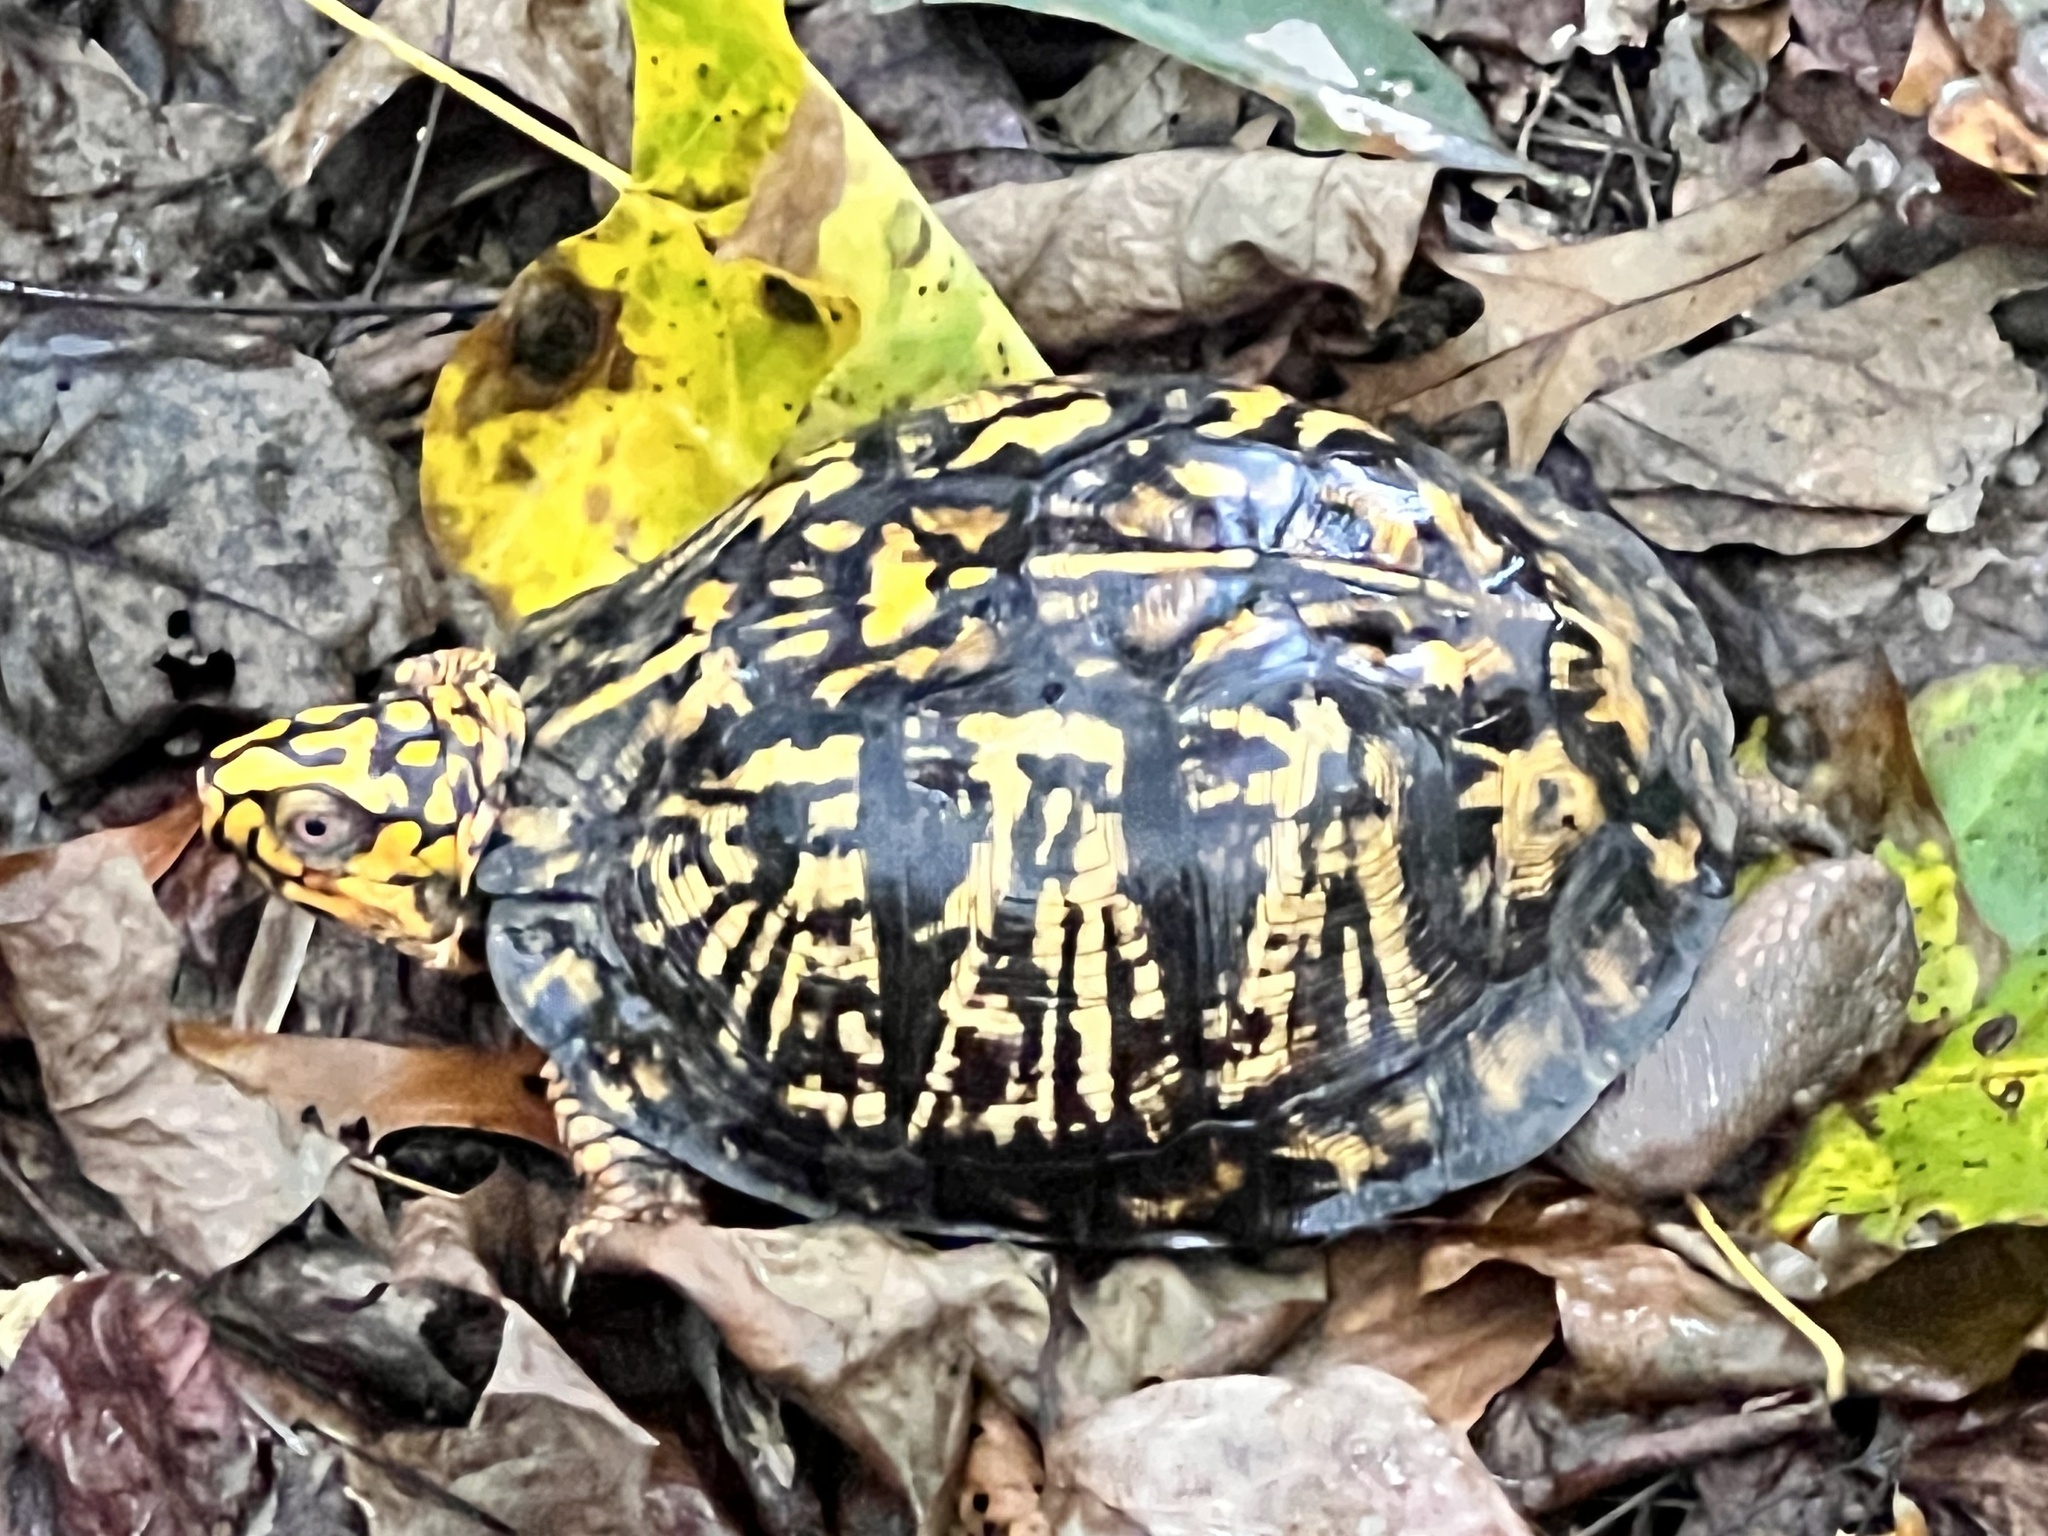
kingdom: Animalia
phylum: Chordata
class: Testudines
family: Emydidae
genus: Terrapene
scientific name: Terrapene carolina
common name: Common box turtle
